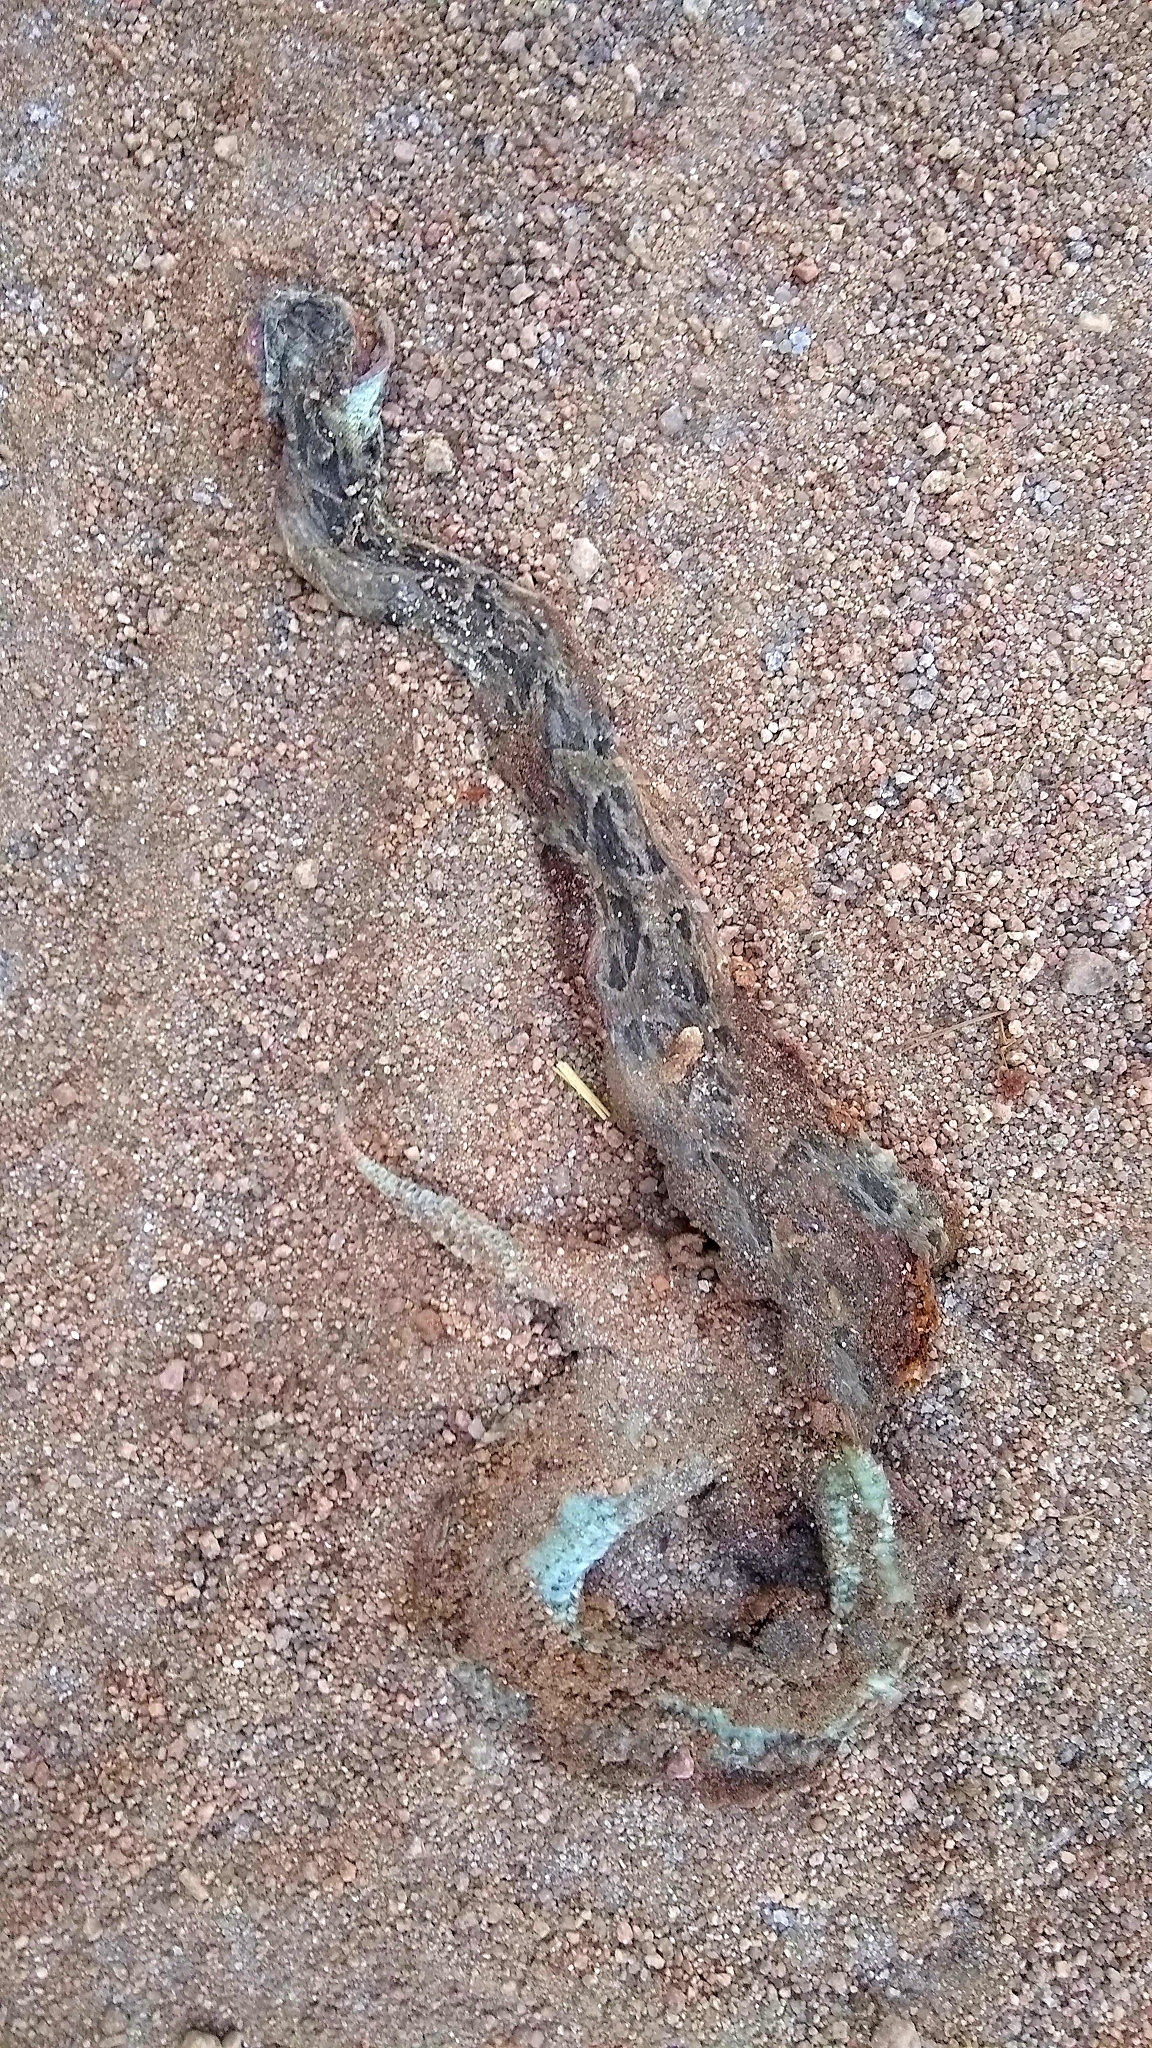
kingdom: Animalia
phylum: Chordata
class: Squamata
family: Viperidae
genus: Bothrops
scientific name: Bothrops diporus
